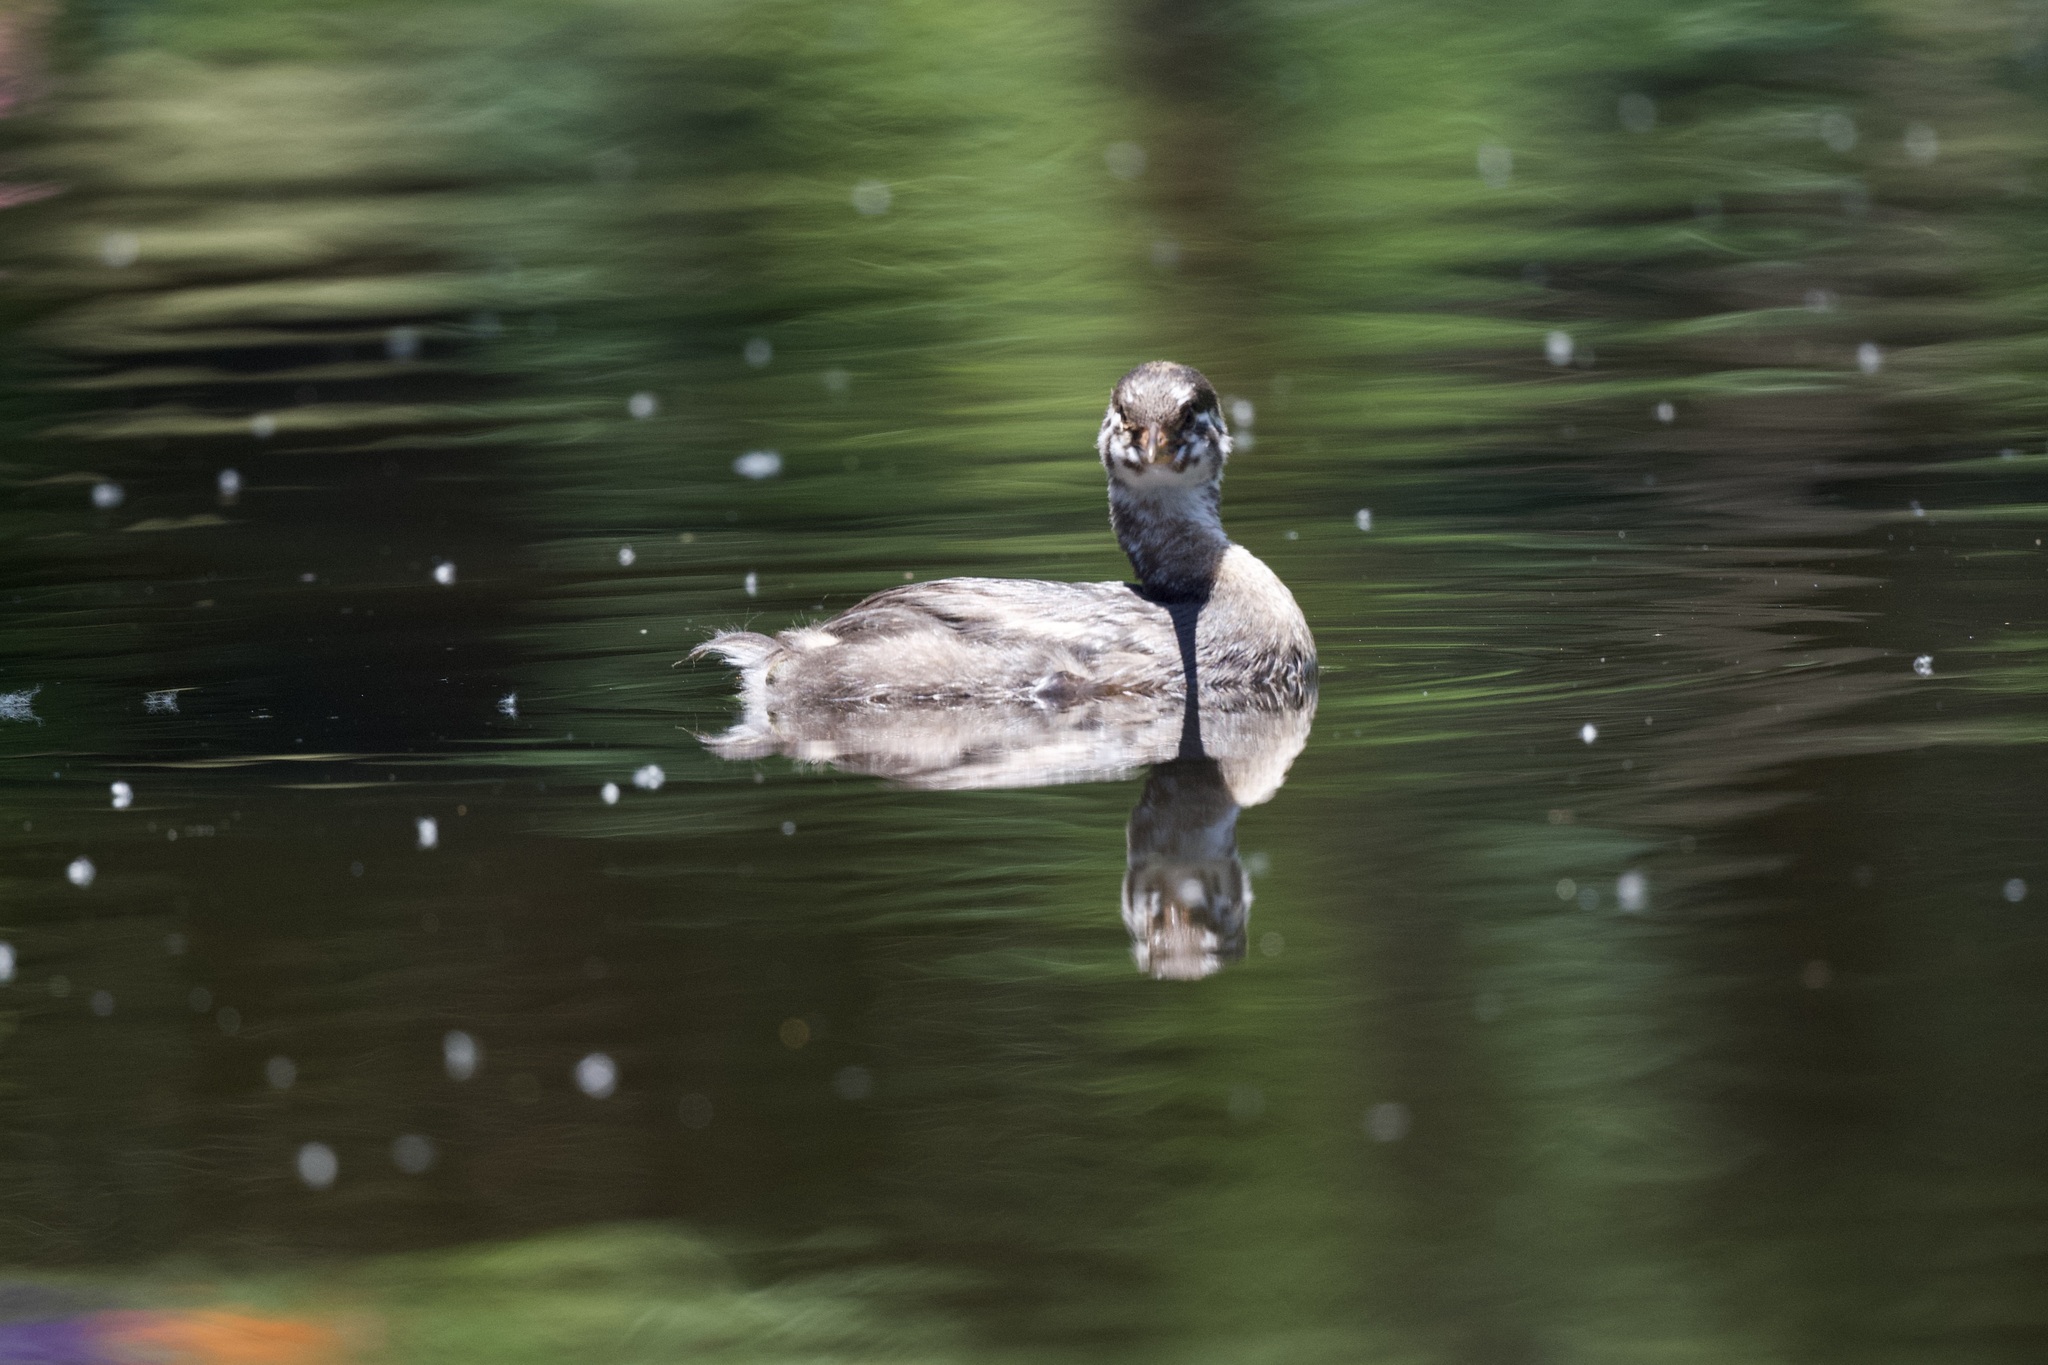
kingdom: Animalia
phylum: Chordata
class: Aves
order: Podicipediformes
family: Podicipedidae
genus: Podilymbus
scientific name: Podilymbus podiceps
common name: Pied-billed grebe
